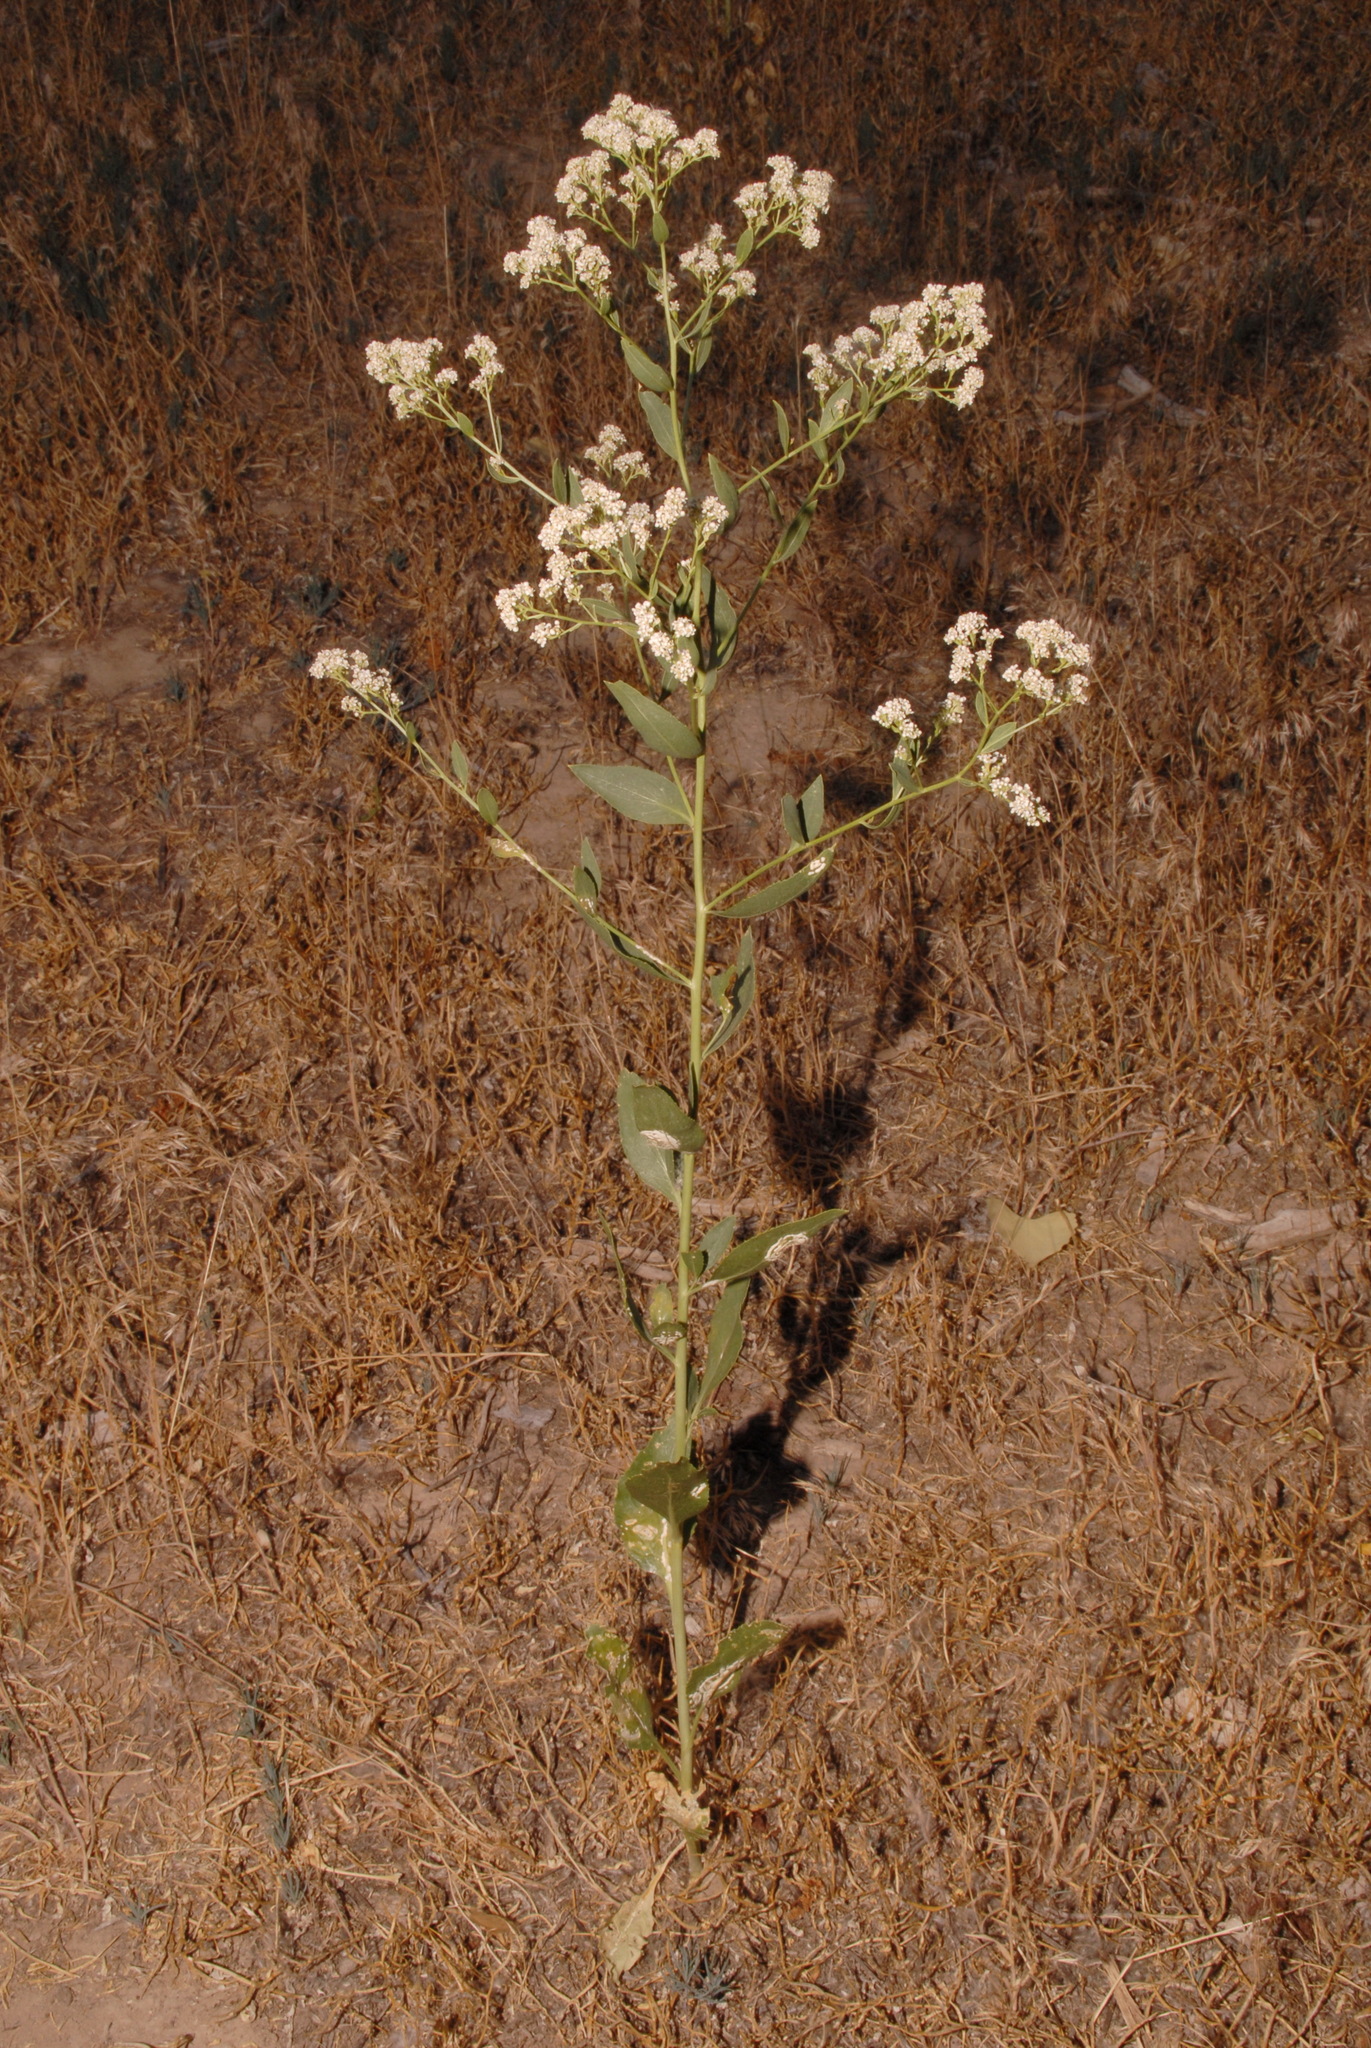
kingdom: Plantae
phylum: Tracheophyta
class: Magnoliopsida
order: Brassicales
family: Brassicaceae
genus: Lepidium
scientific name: Lepidium latifolium
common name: Dittander
